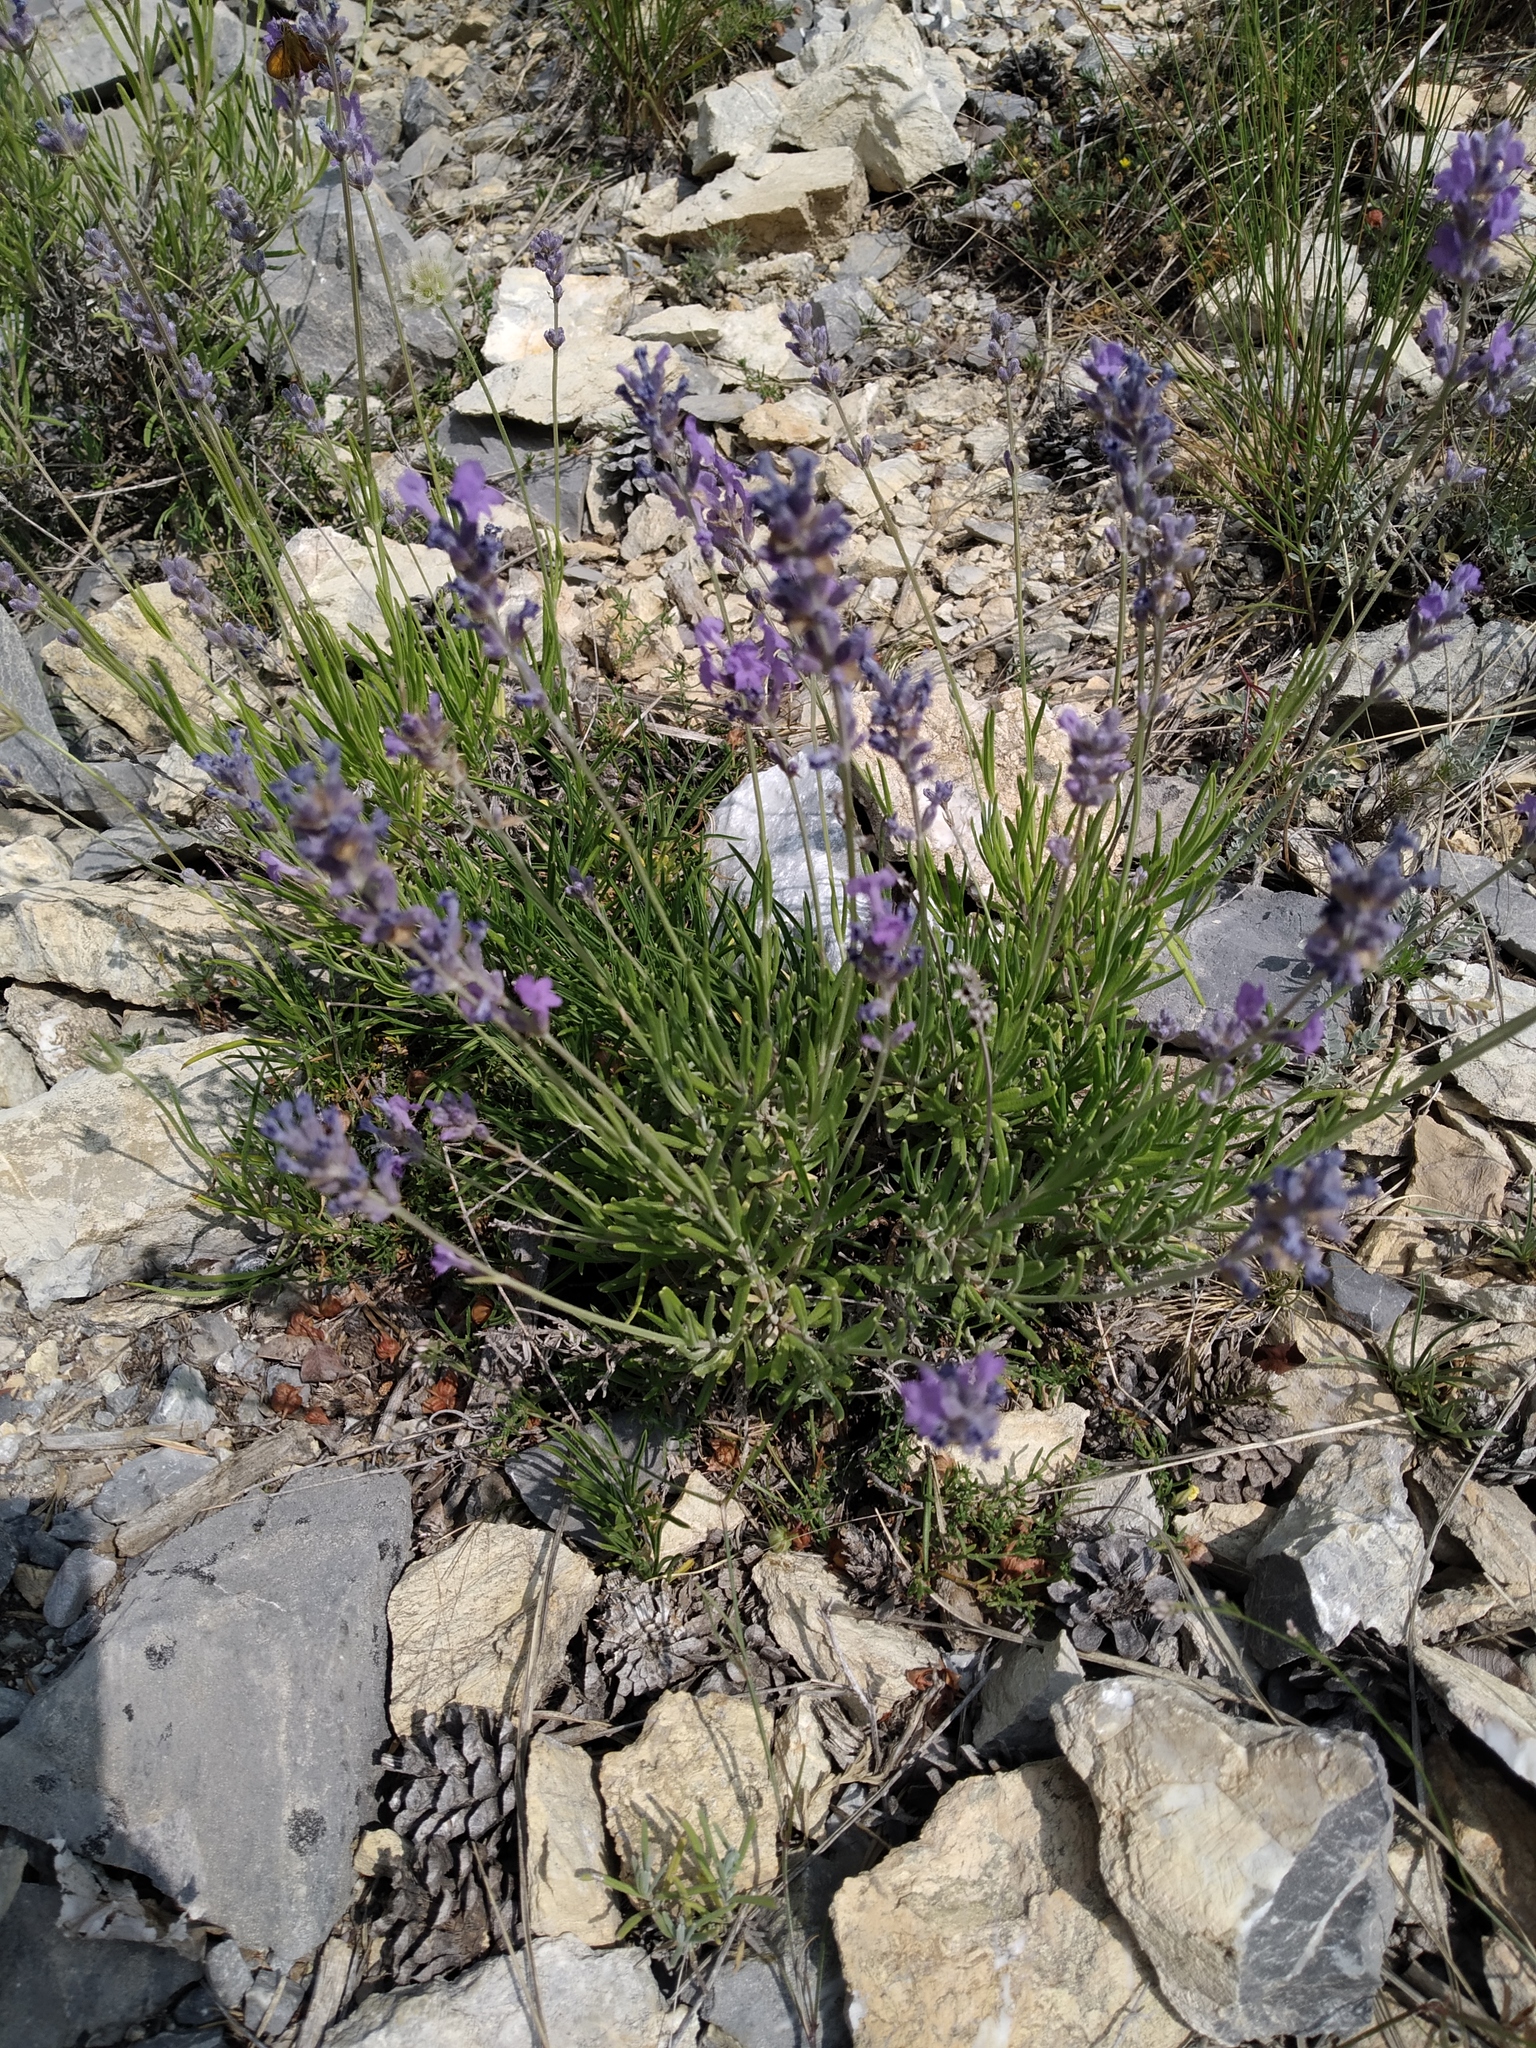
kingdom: Plantae
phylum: Tracheophyta
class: Magnoliopsida
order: Lamiales
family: Lamiaceae
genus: Lavandula
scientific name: Lavandula angustifolia
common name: Garden lavender
